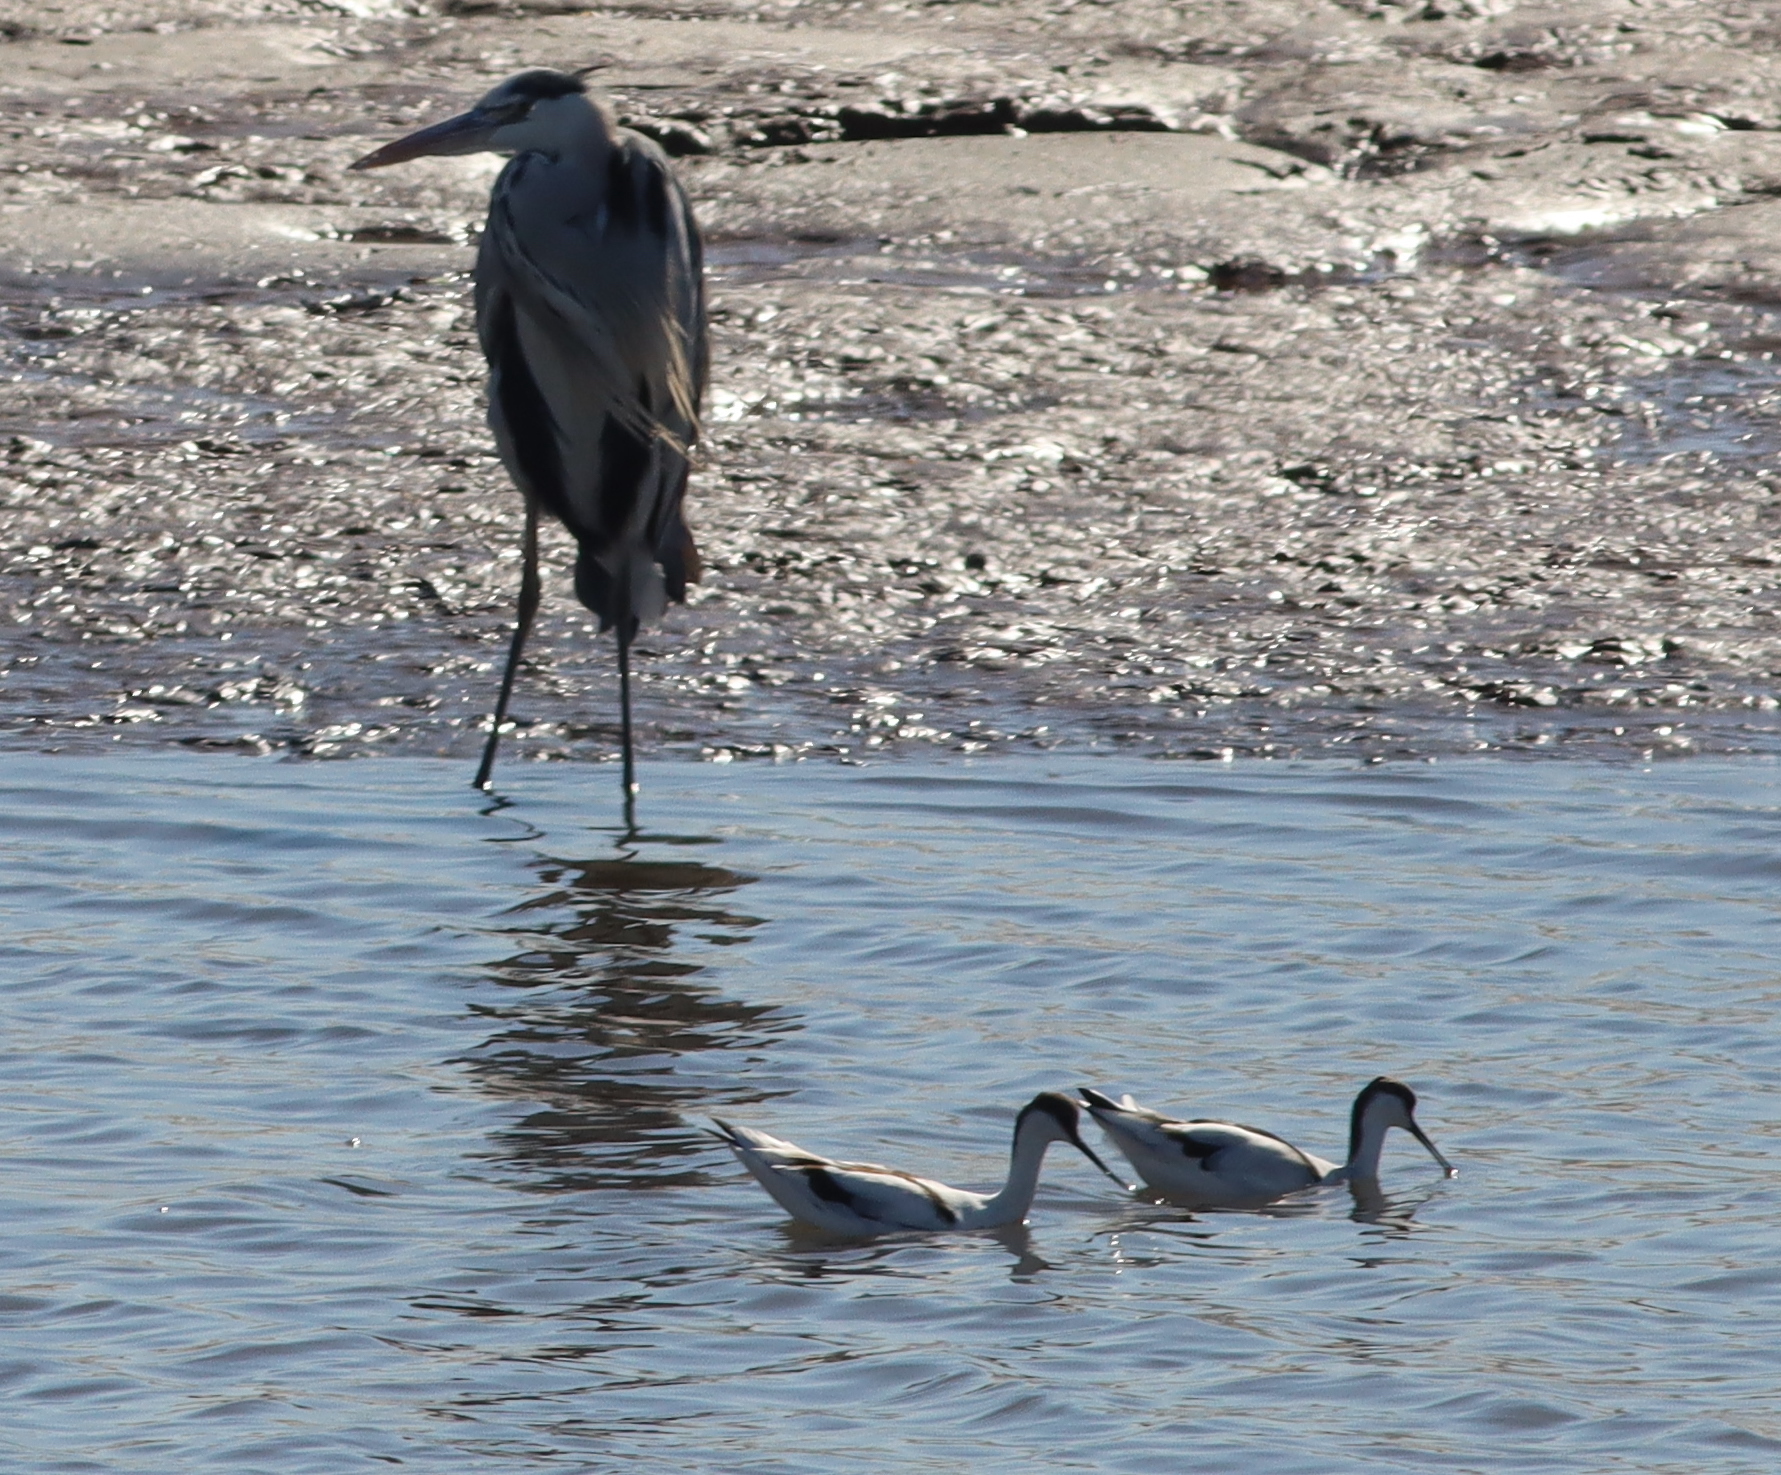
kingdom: Animalia
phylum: Chordata
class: Aves
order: Charadriiformes
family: Recurvirostridae
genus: Recurvirostra
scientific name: Recurvirostra avosetta
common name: Pied avocet
